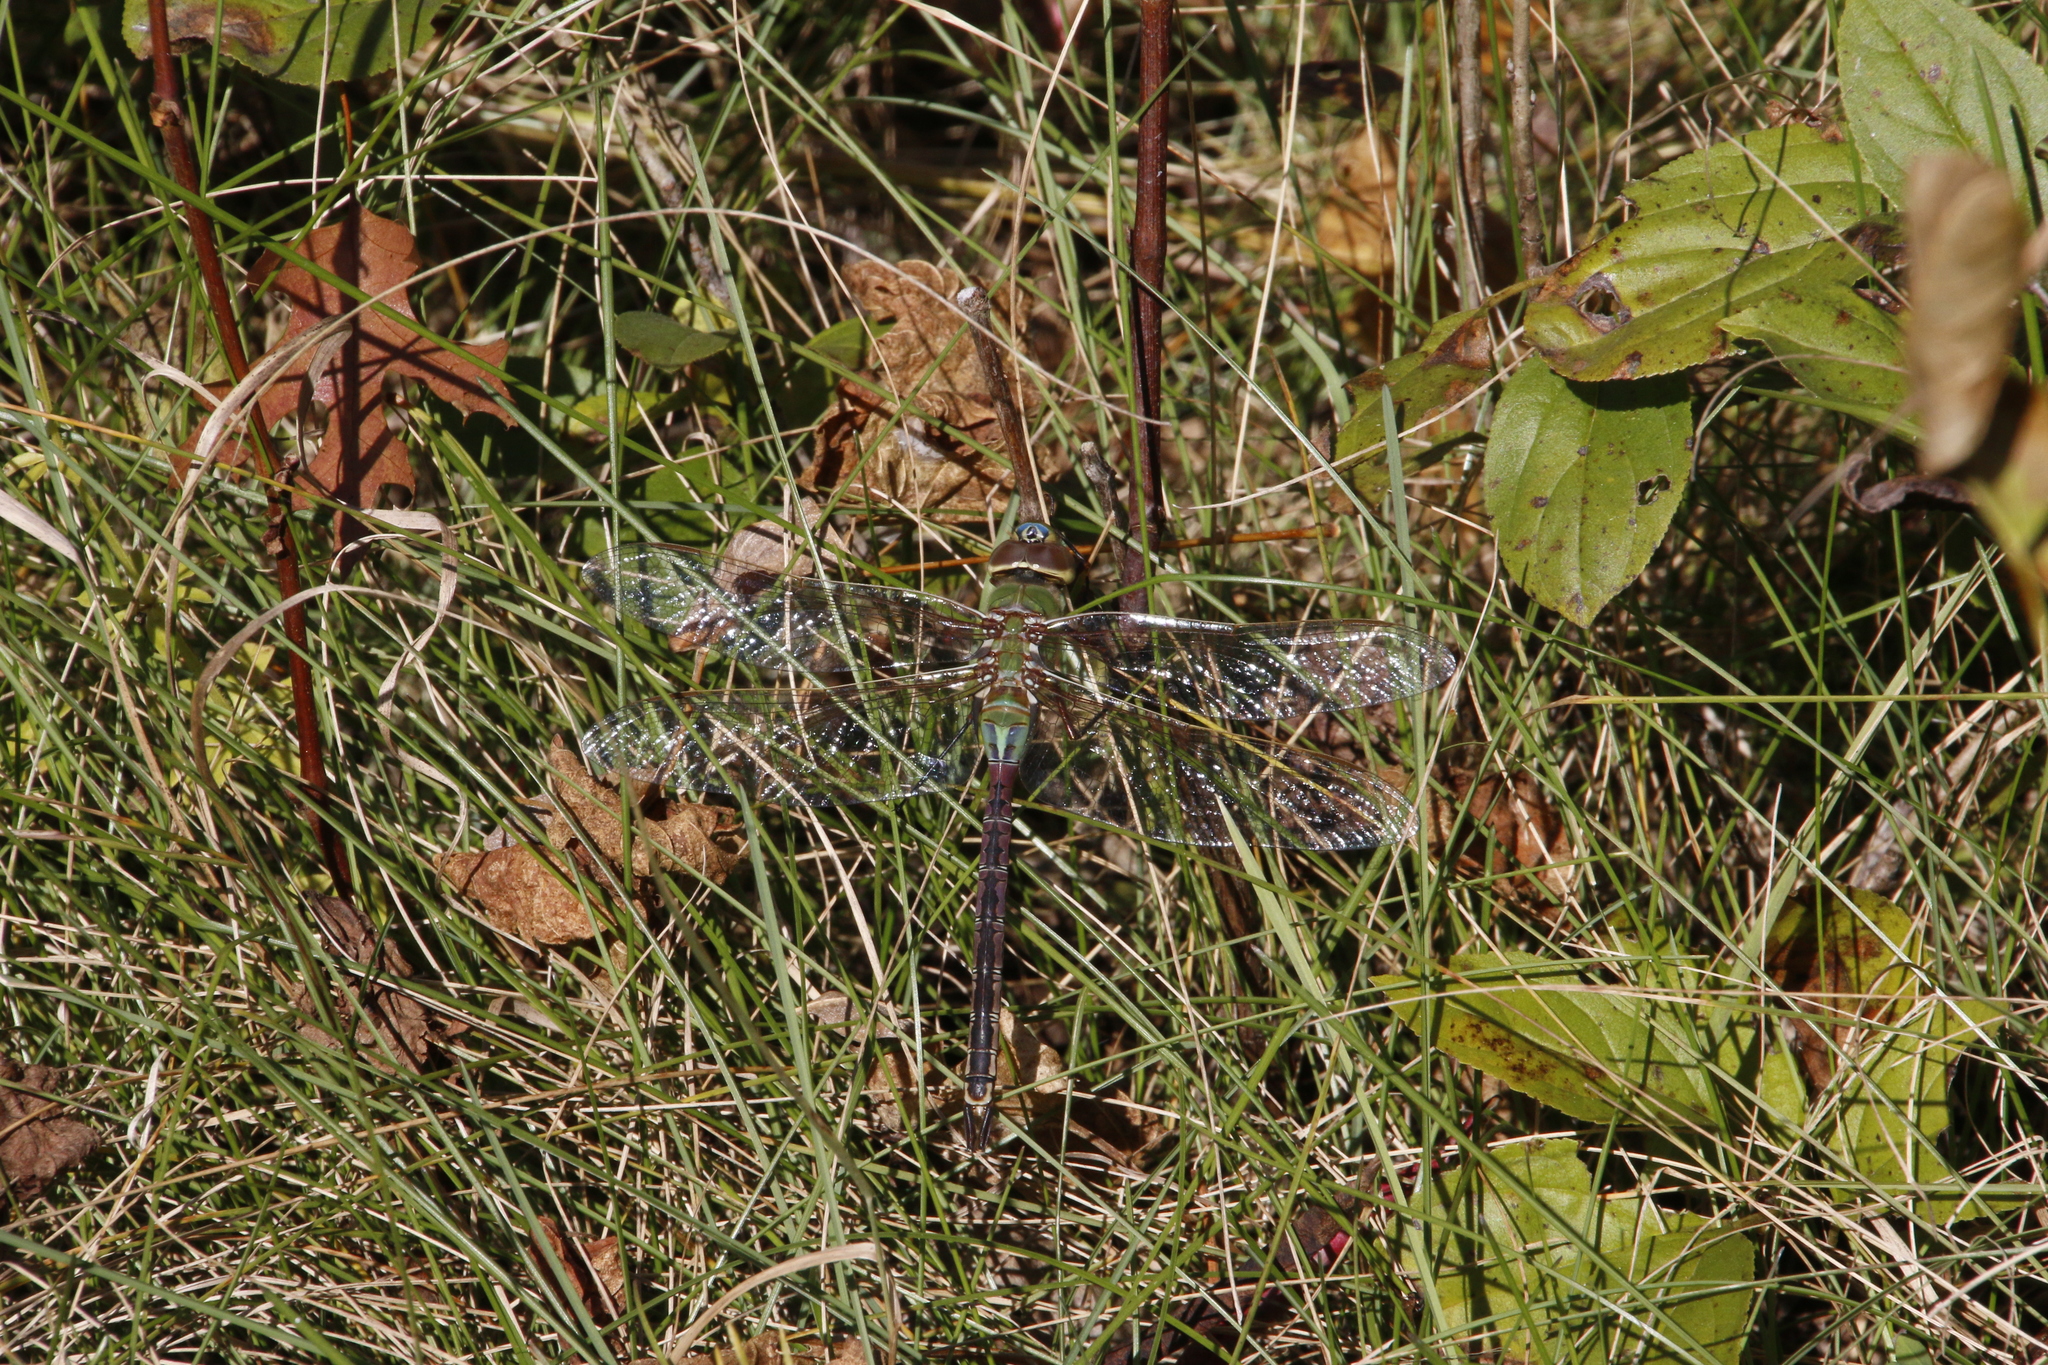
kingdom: Animalia
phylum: Arthropoda
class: Insecta
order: Odonata
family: Aeshnidae
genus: Anax
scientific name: Anax junius
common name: Common green darner
